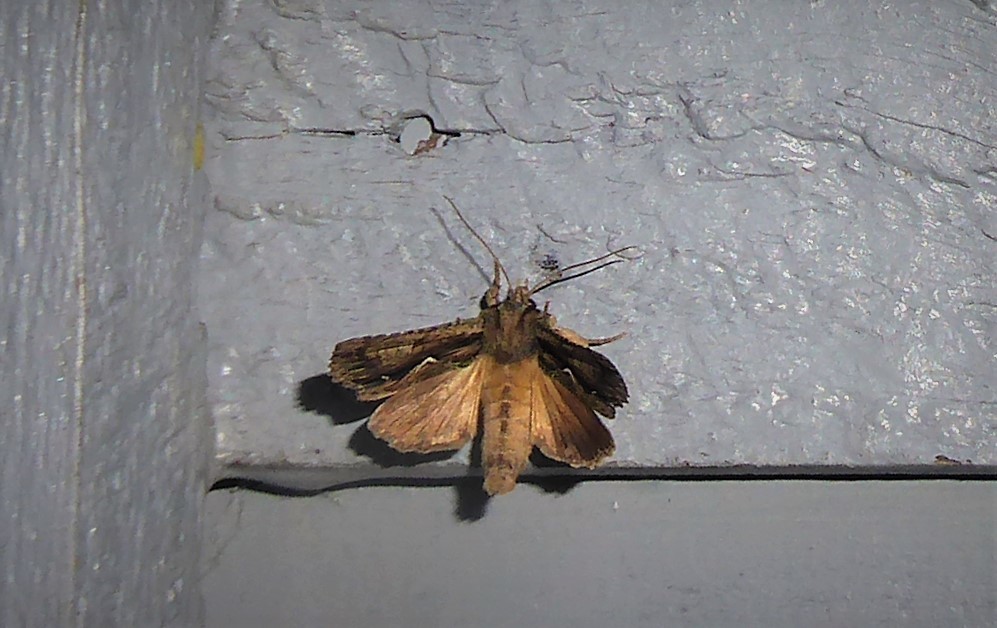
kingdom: Animalia
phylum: Arthropoda
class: Insecta
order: Lepidoptera
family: Noctuidae
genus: Meterana
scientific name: Meterana decorata
